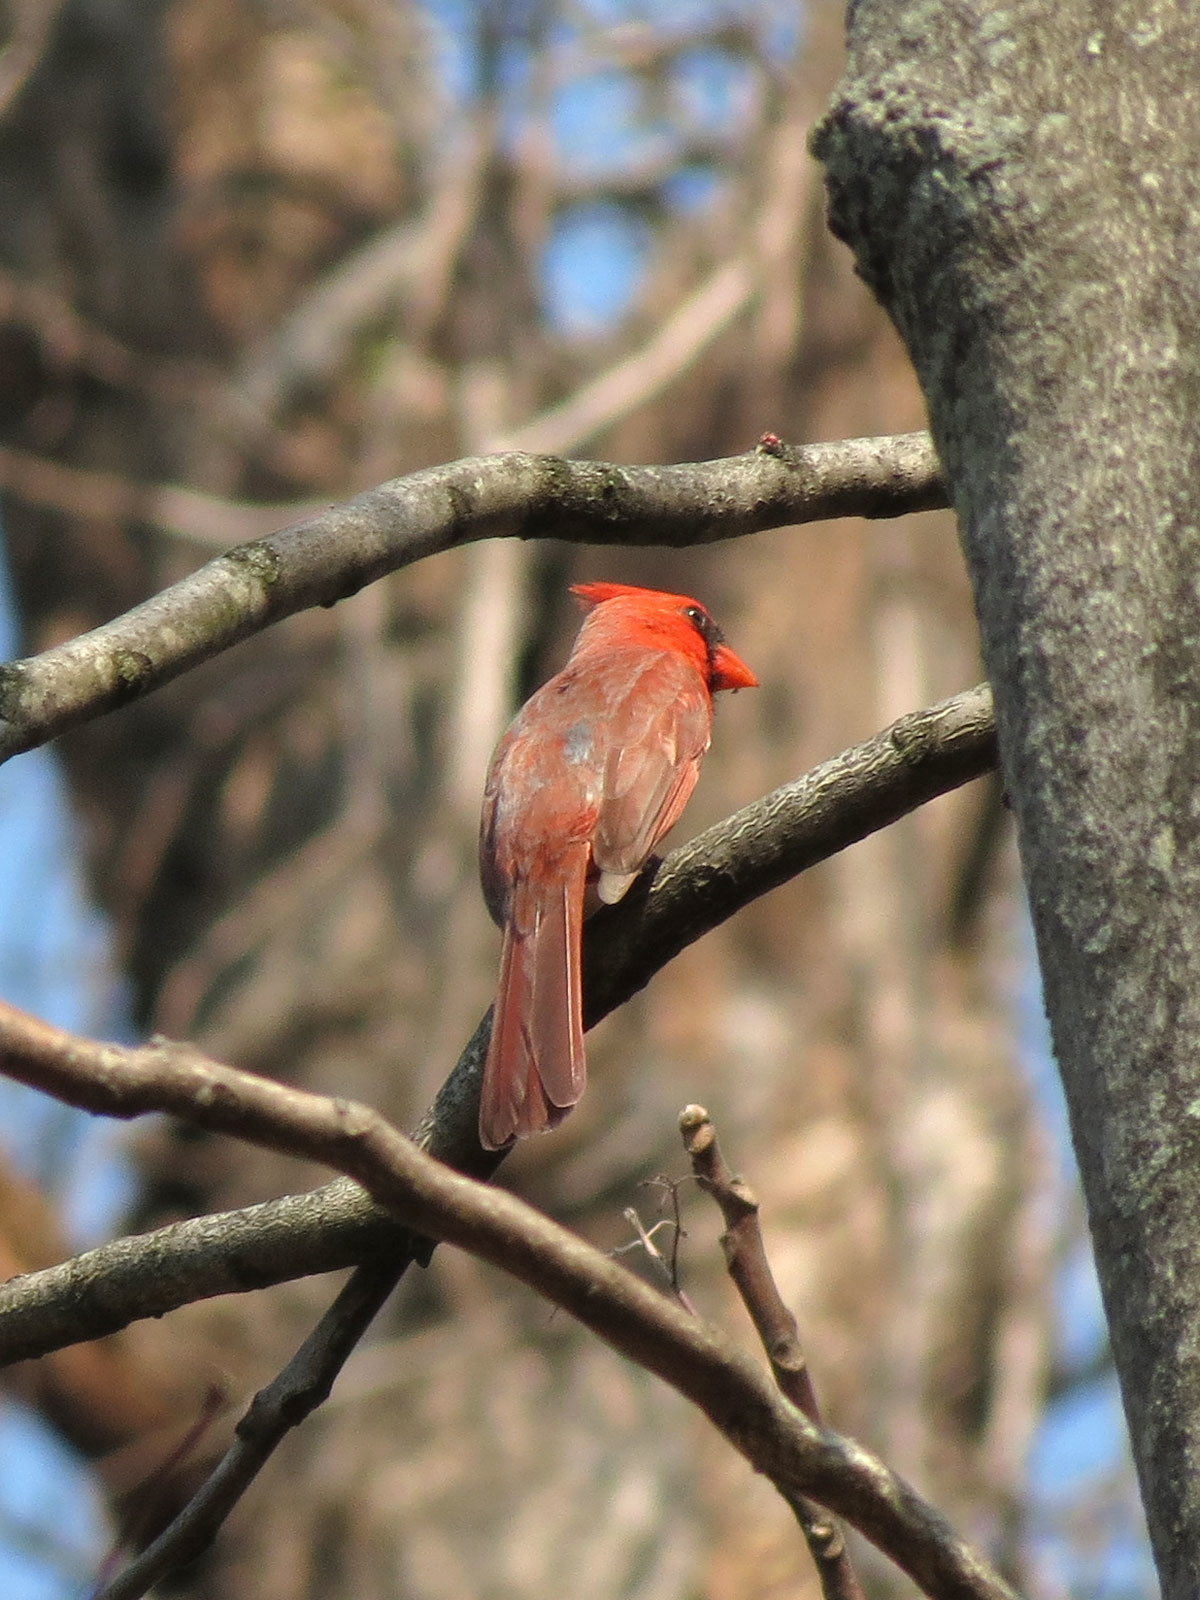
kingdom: Animalia
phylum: Chordata
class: Aves
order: Passeriformes
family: Cardinalidae
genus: Cardinalis
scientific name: Cardinalis cardinalis
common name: Northern cardinal
